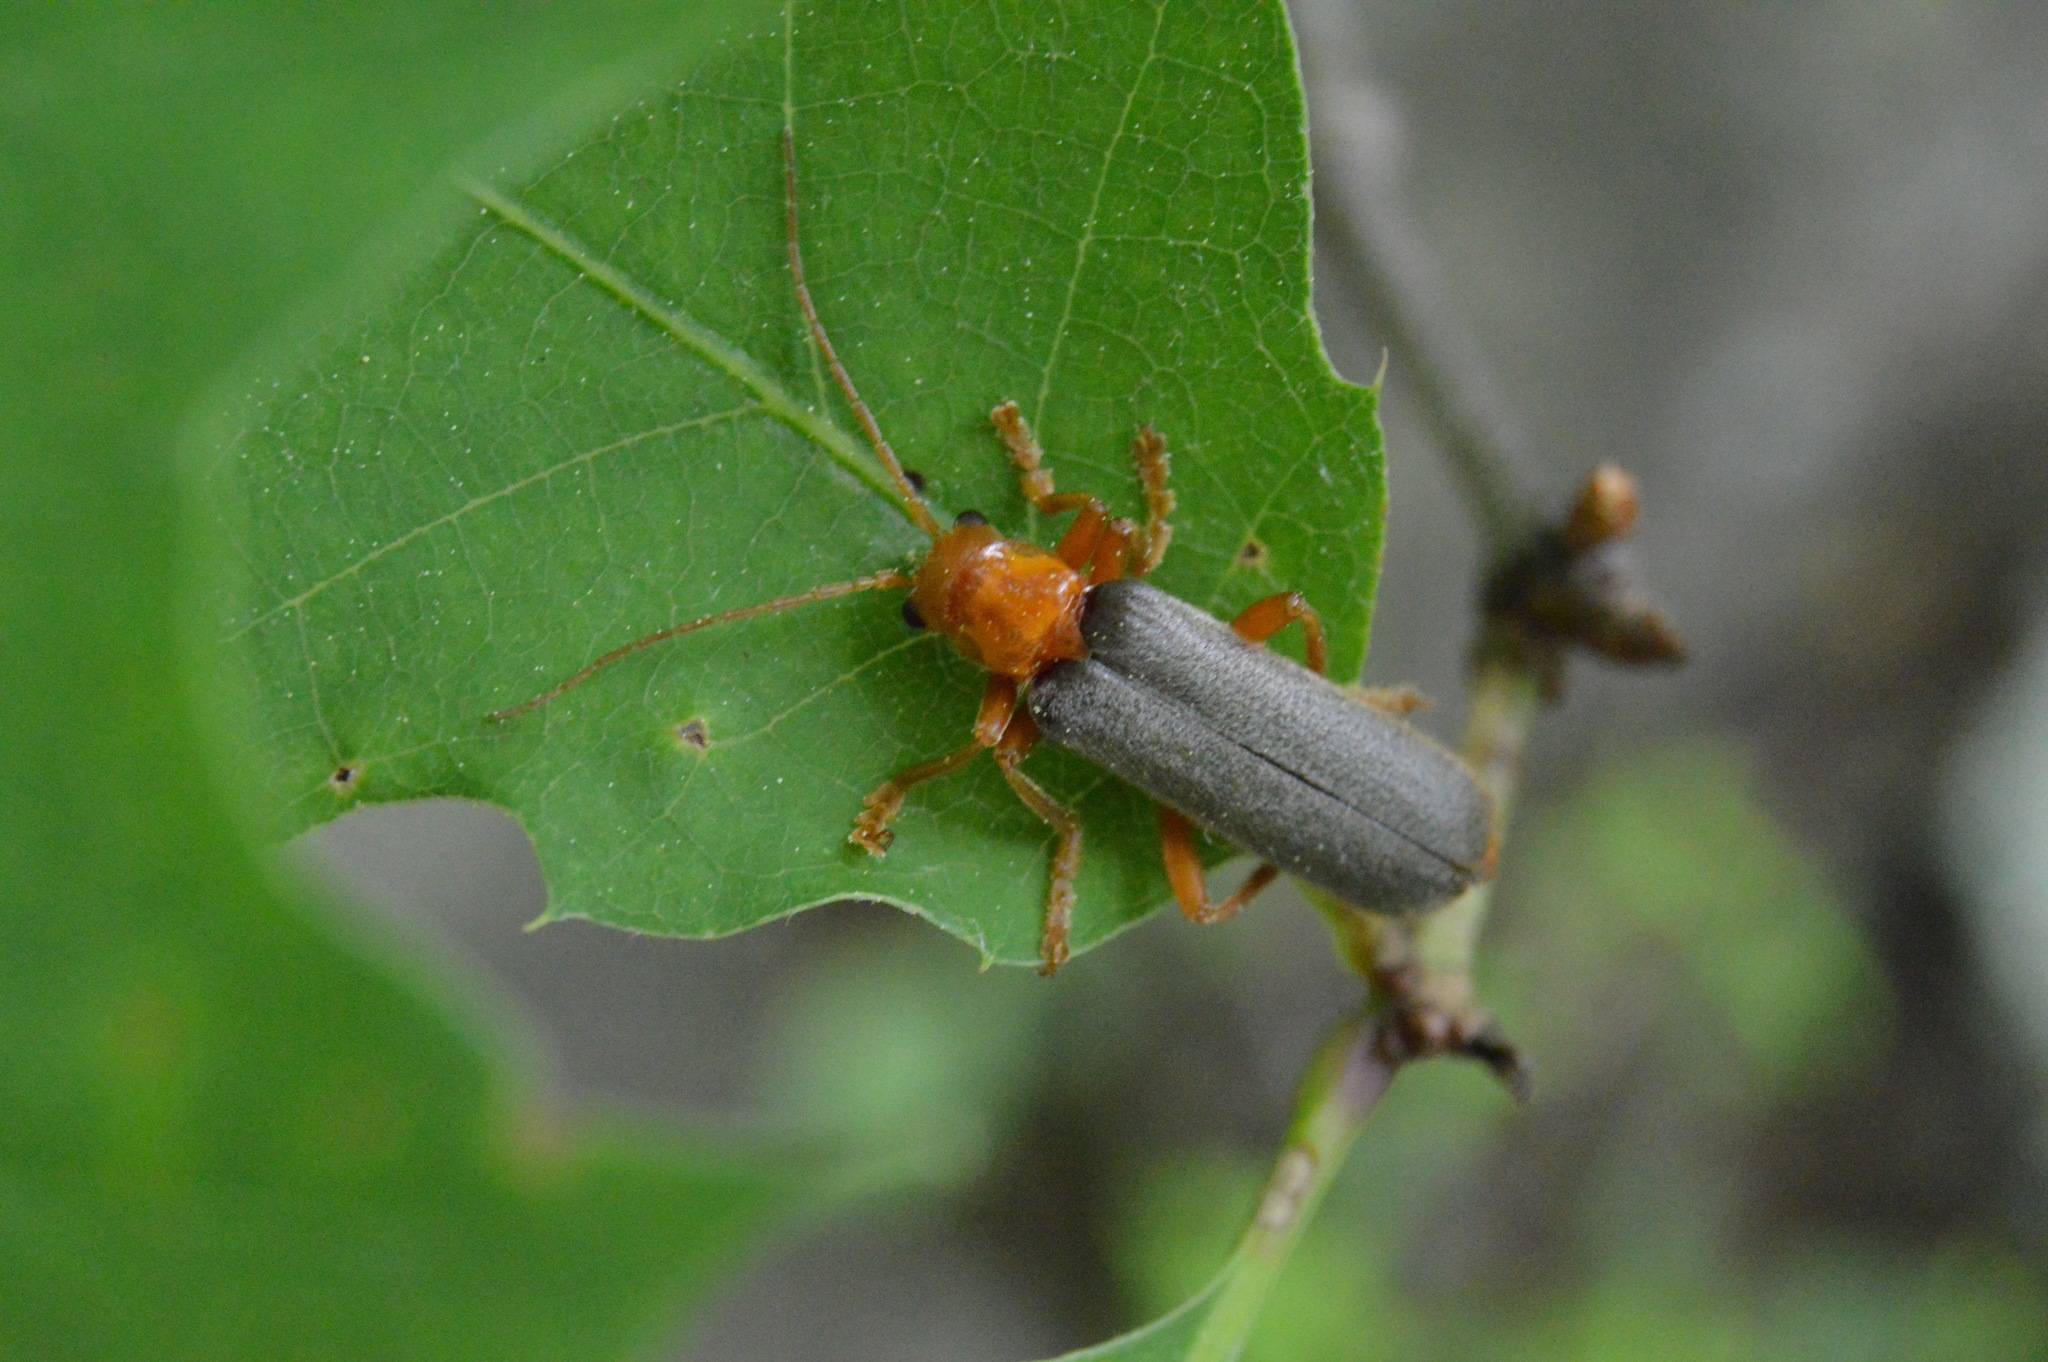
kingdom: Animalia
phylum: Arthropoda
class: Insecta
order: Coleoptera
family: Cantharidae
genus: Pacificanthia
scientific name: Pacificanthia rotundicollis
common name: Brown leatherwing beetle
